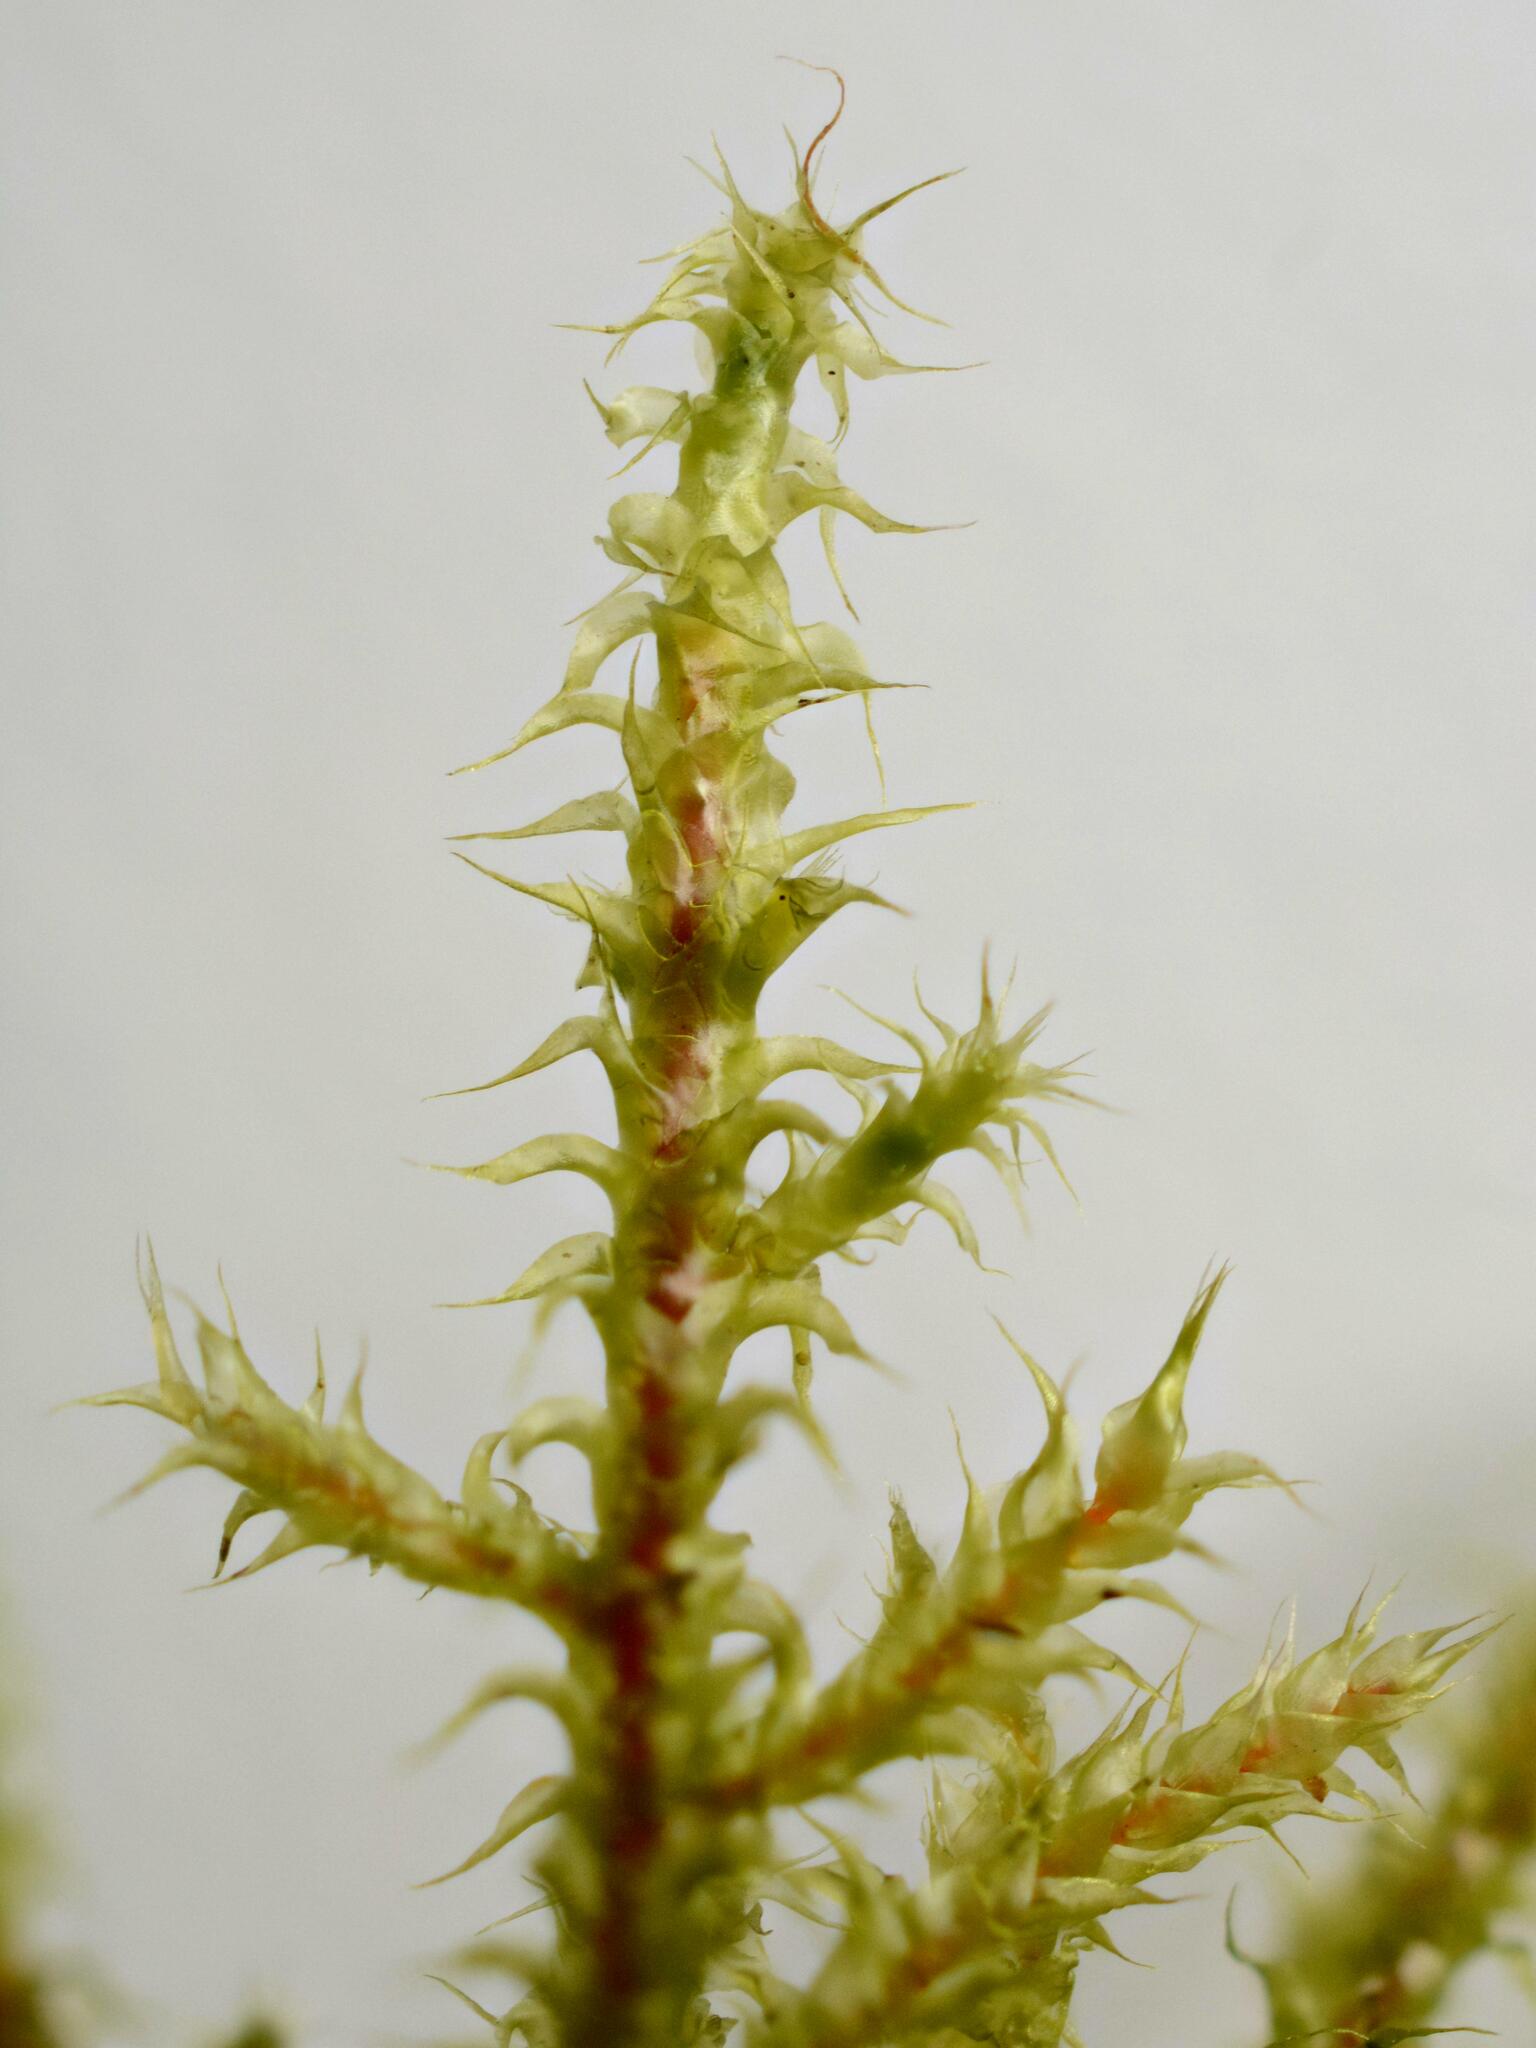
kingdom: Plantae
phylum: Bryophyta
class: Bryopsida
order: Hypnales
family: Hylocomiaceae
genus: Rhytidiadelphus
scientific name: Rhytidiadelphus squarrosus
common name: Springy turf-moss
